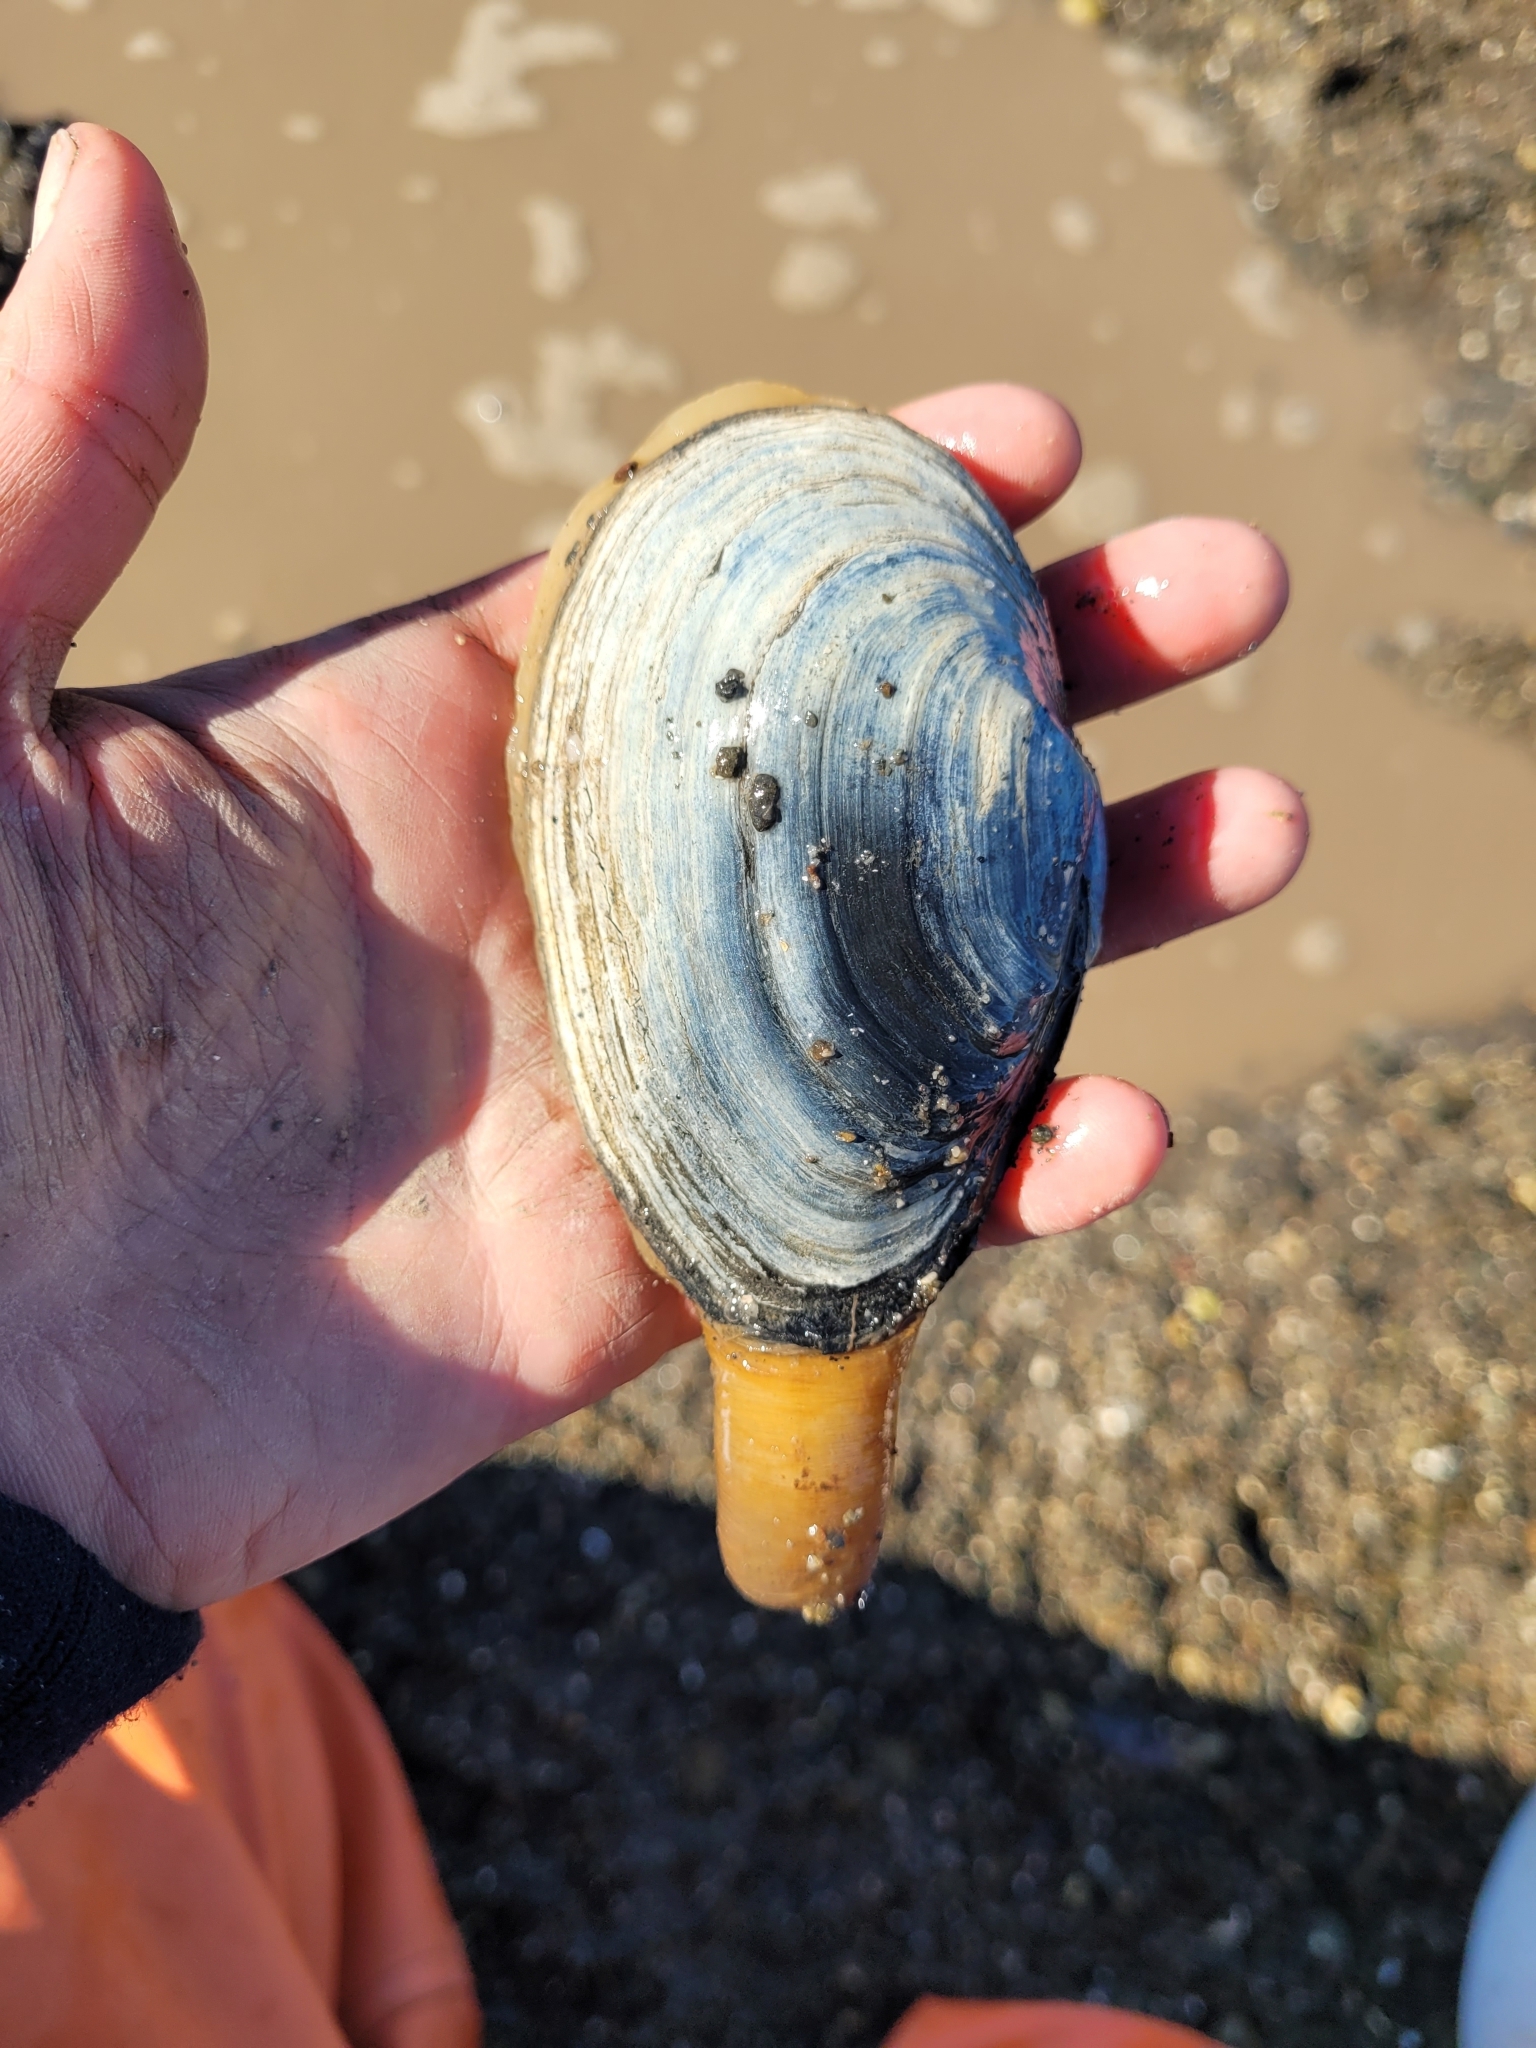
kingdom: Animalia
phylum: Mollusca
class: Bivalvia
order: Myida
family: Myidae
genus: Mya
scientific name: Mya arenaria
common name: Soft-shelled clam
